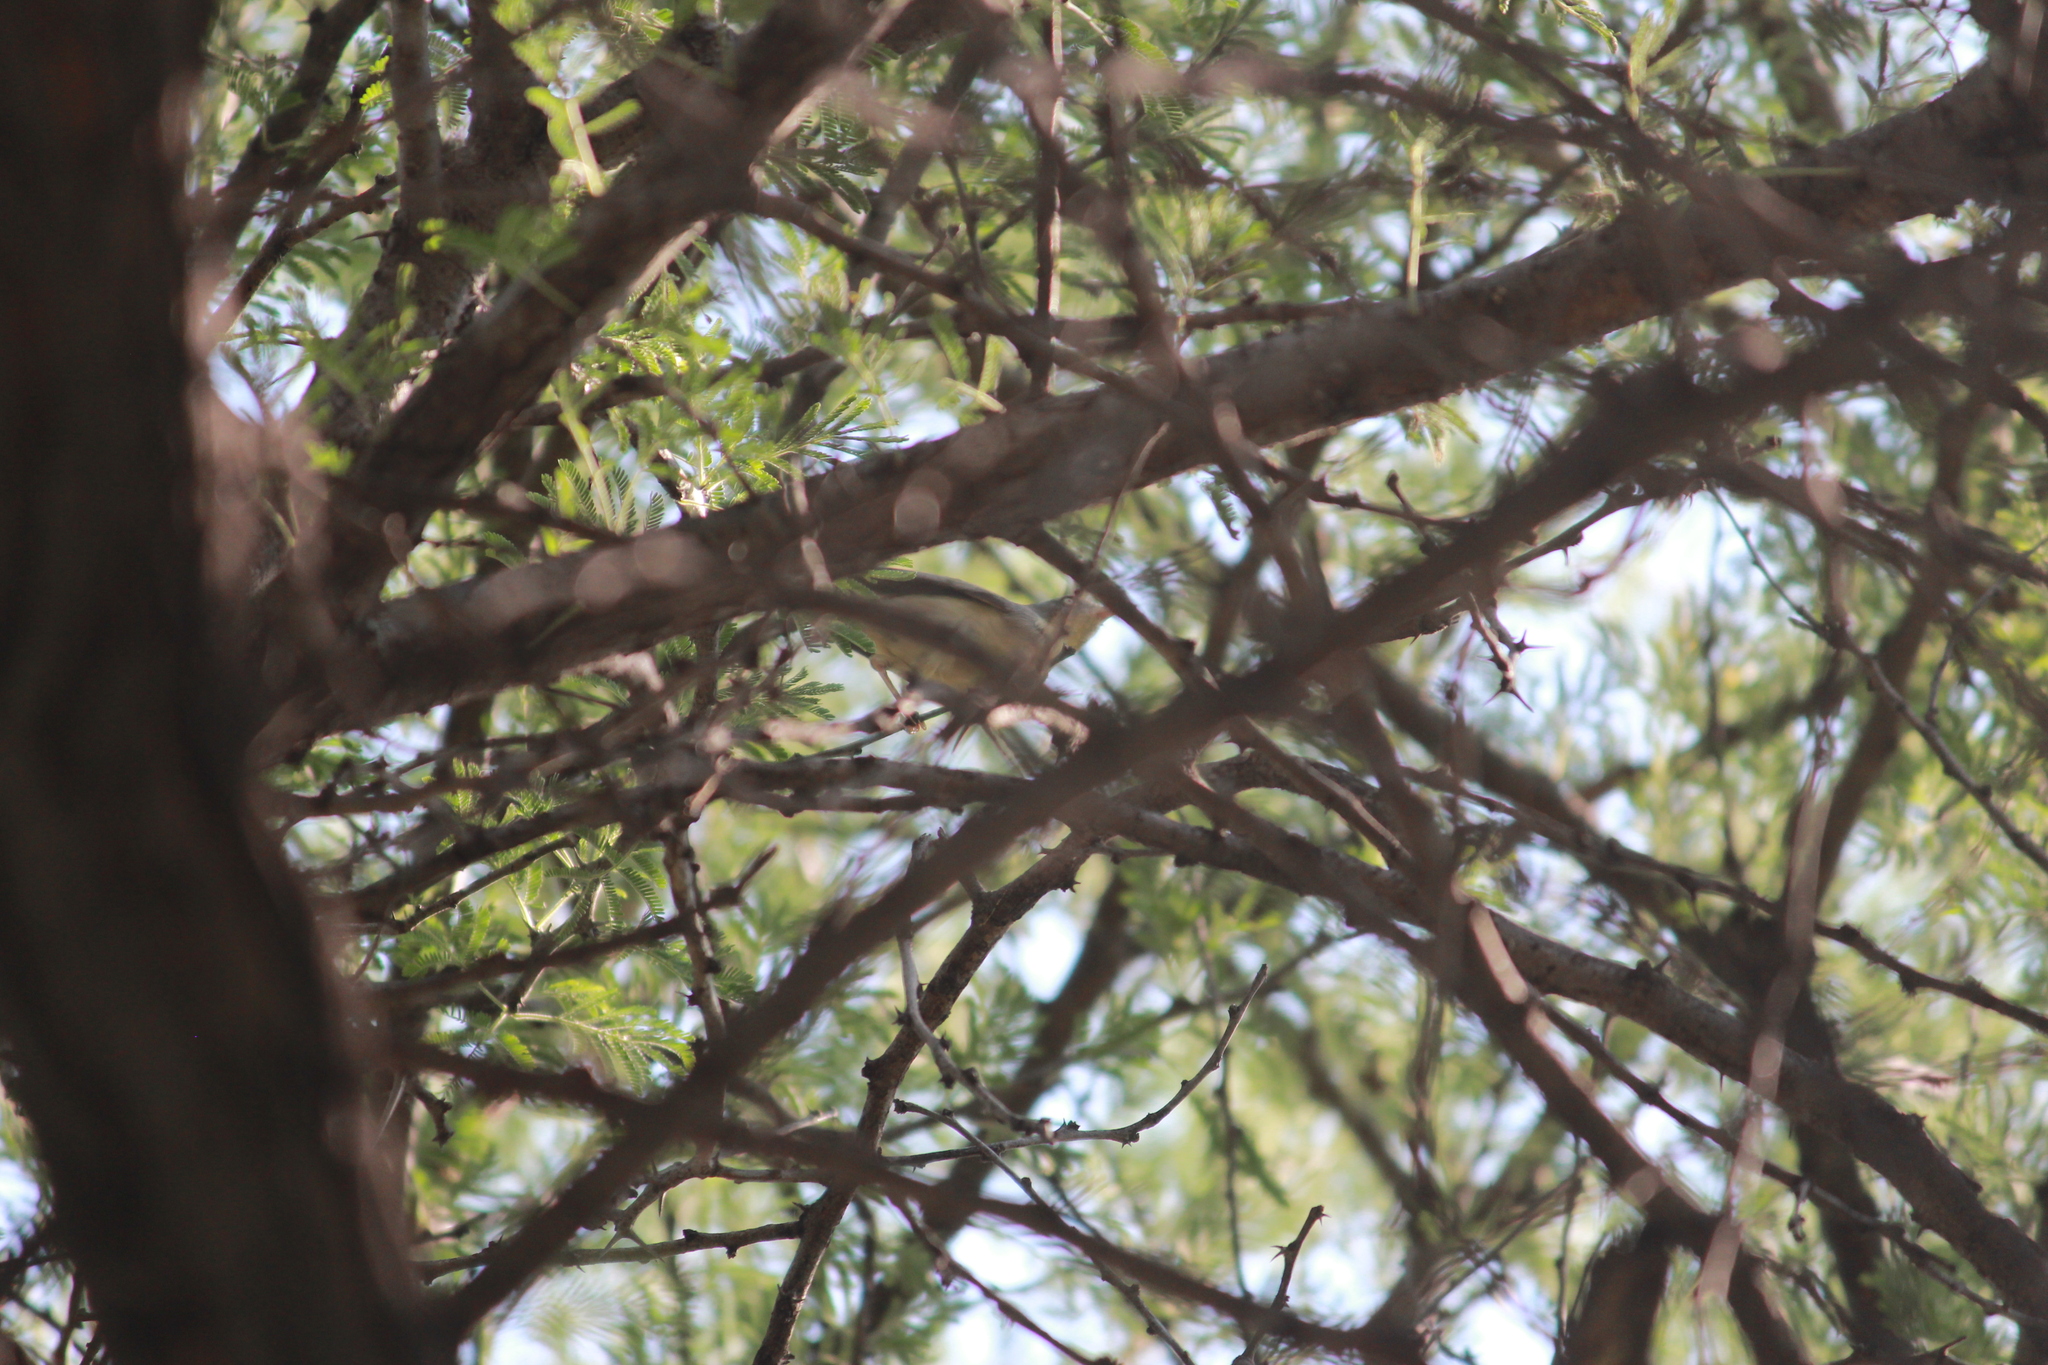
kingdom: Animalia
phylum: Chordata
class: Aves
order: Passeriformes
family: Cisticolidae
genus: Eremomela
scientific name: Eremomela usticollis
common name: Burnt-neck eremomela
